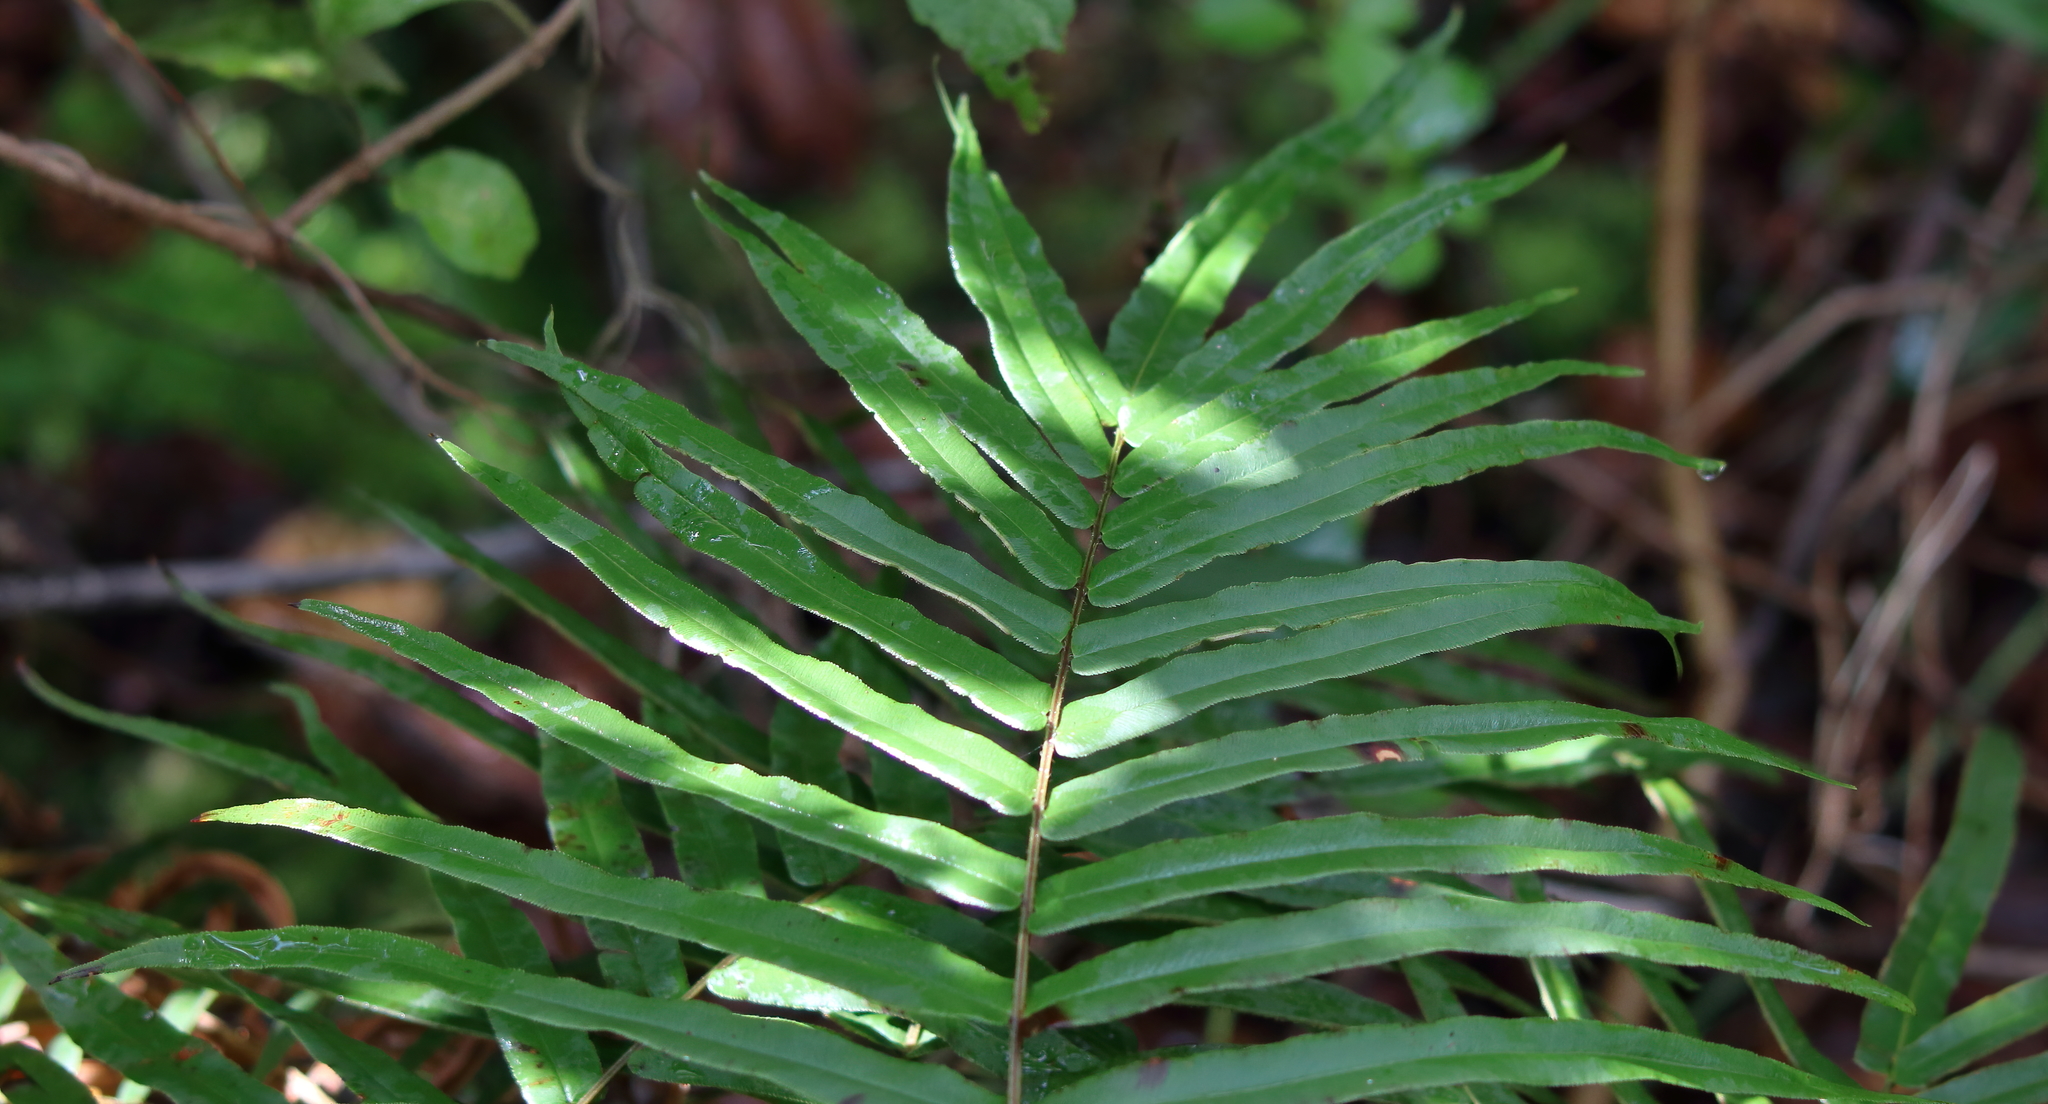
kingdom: Plantae
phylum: Tracheophyta
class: Polypodiopsida
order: Polypodiales
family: Pteridaceae
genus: Pteris
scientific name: Pteris vittata
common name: Ladder brake
